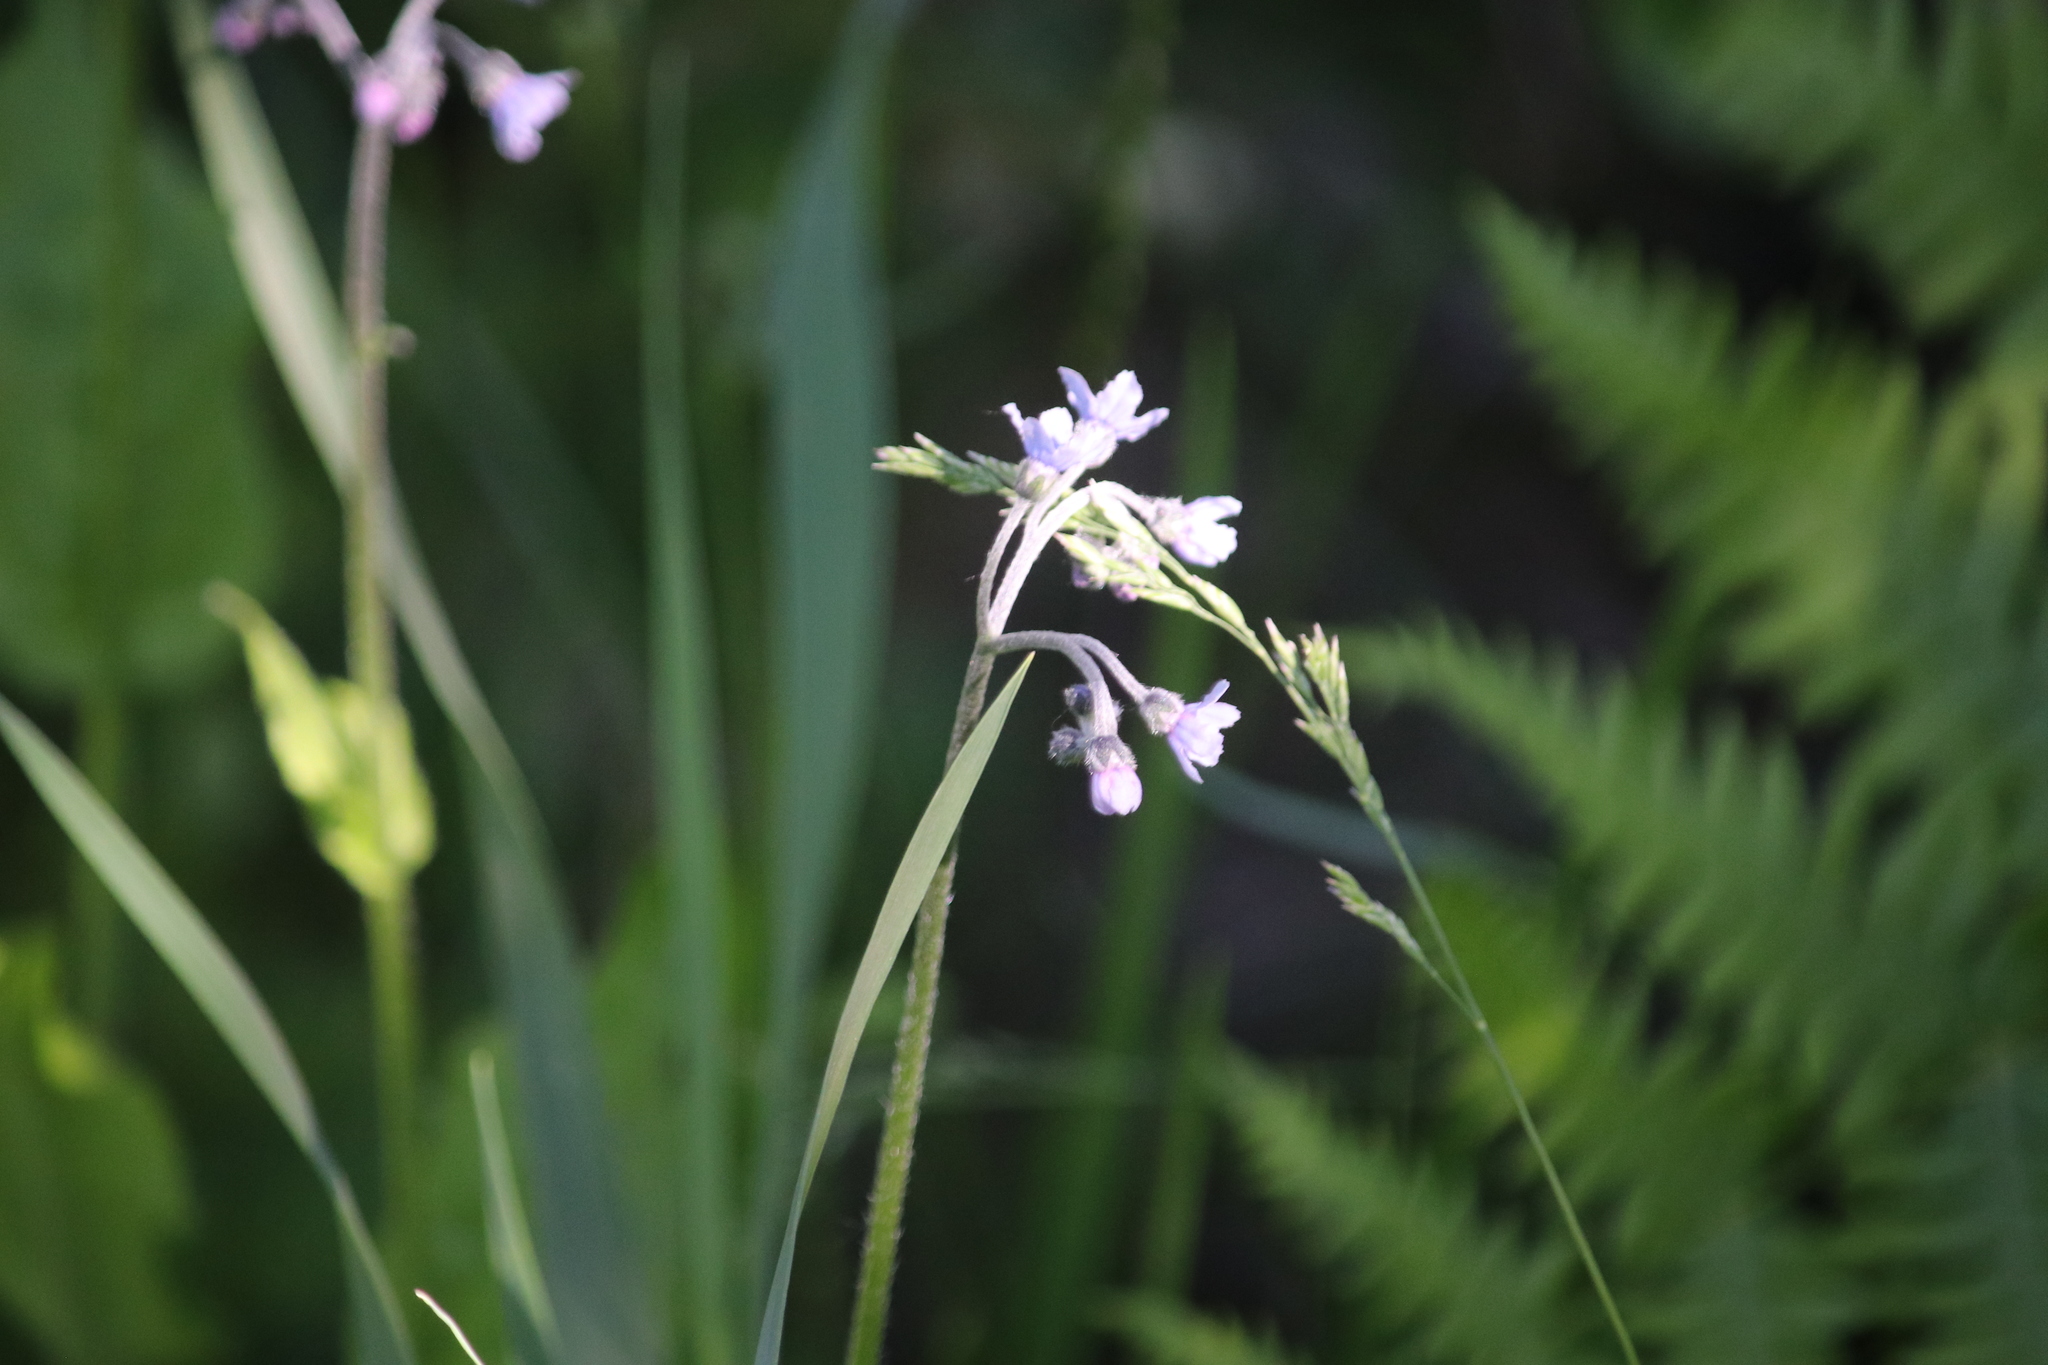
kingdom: Plantae
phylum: Tracheophyta
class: Magnoliopsida
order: Boraginales
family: Boraginaceae
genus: Andersonglossum
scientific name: Andersonglossum boreale
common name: Northern hound's-tongue
